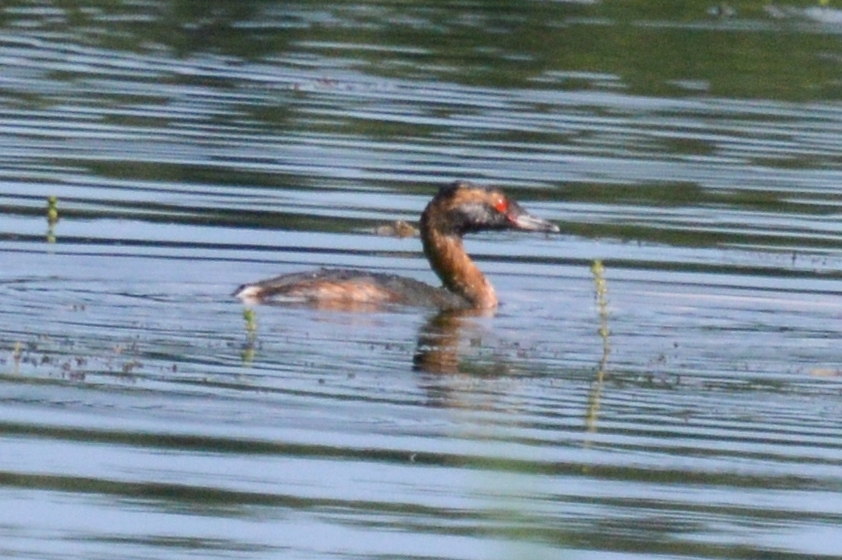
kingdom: Animalia
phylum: Chordata
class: Aves
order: Podicipediformes
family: Podicipedidae
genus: Podiceps
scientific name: Podiceps auritus
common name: Horned grebe
